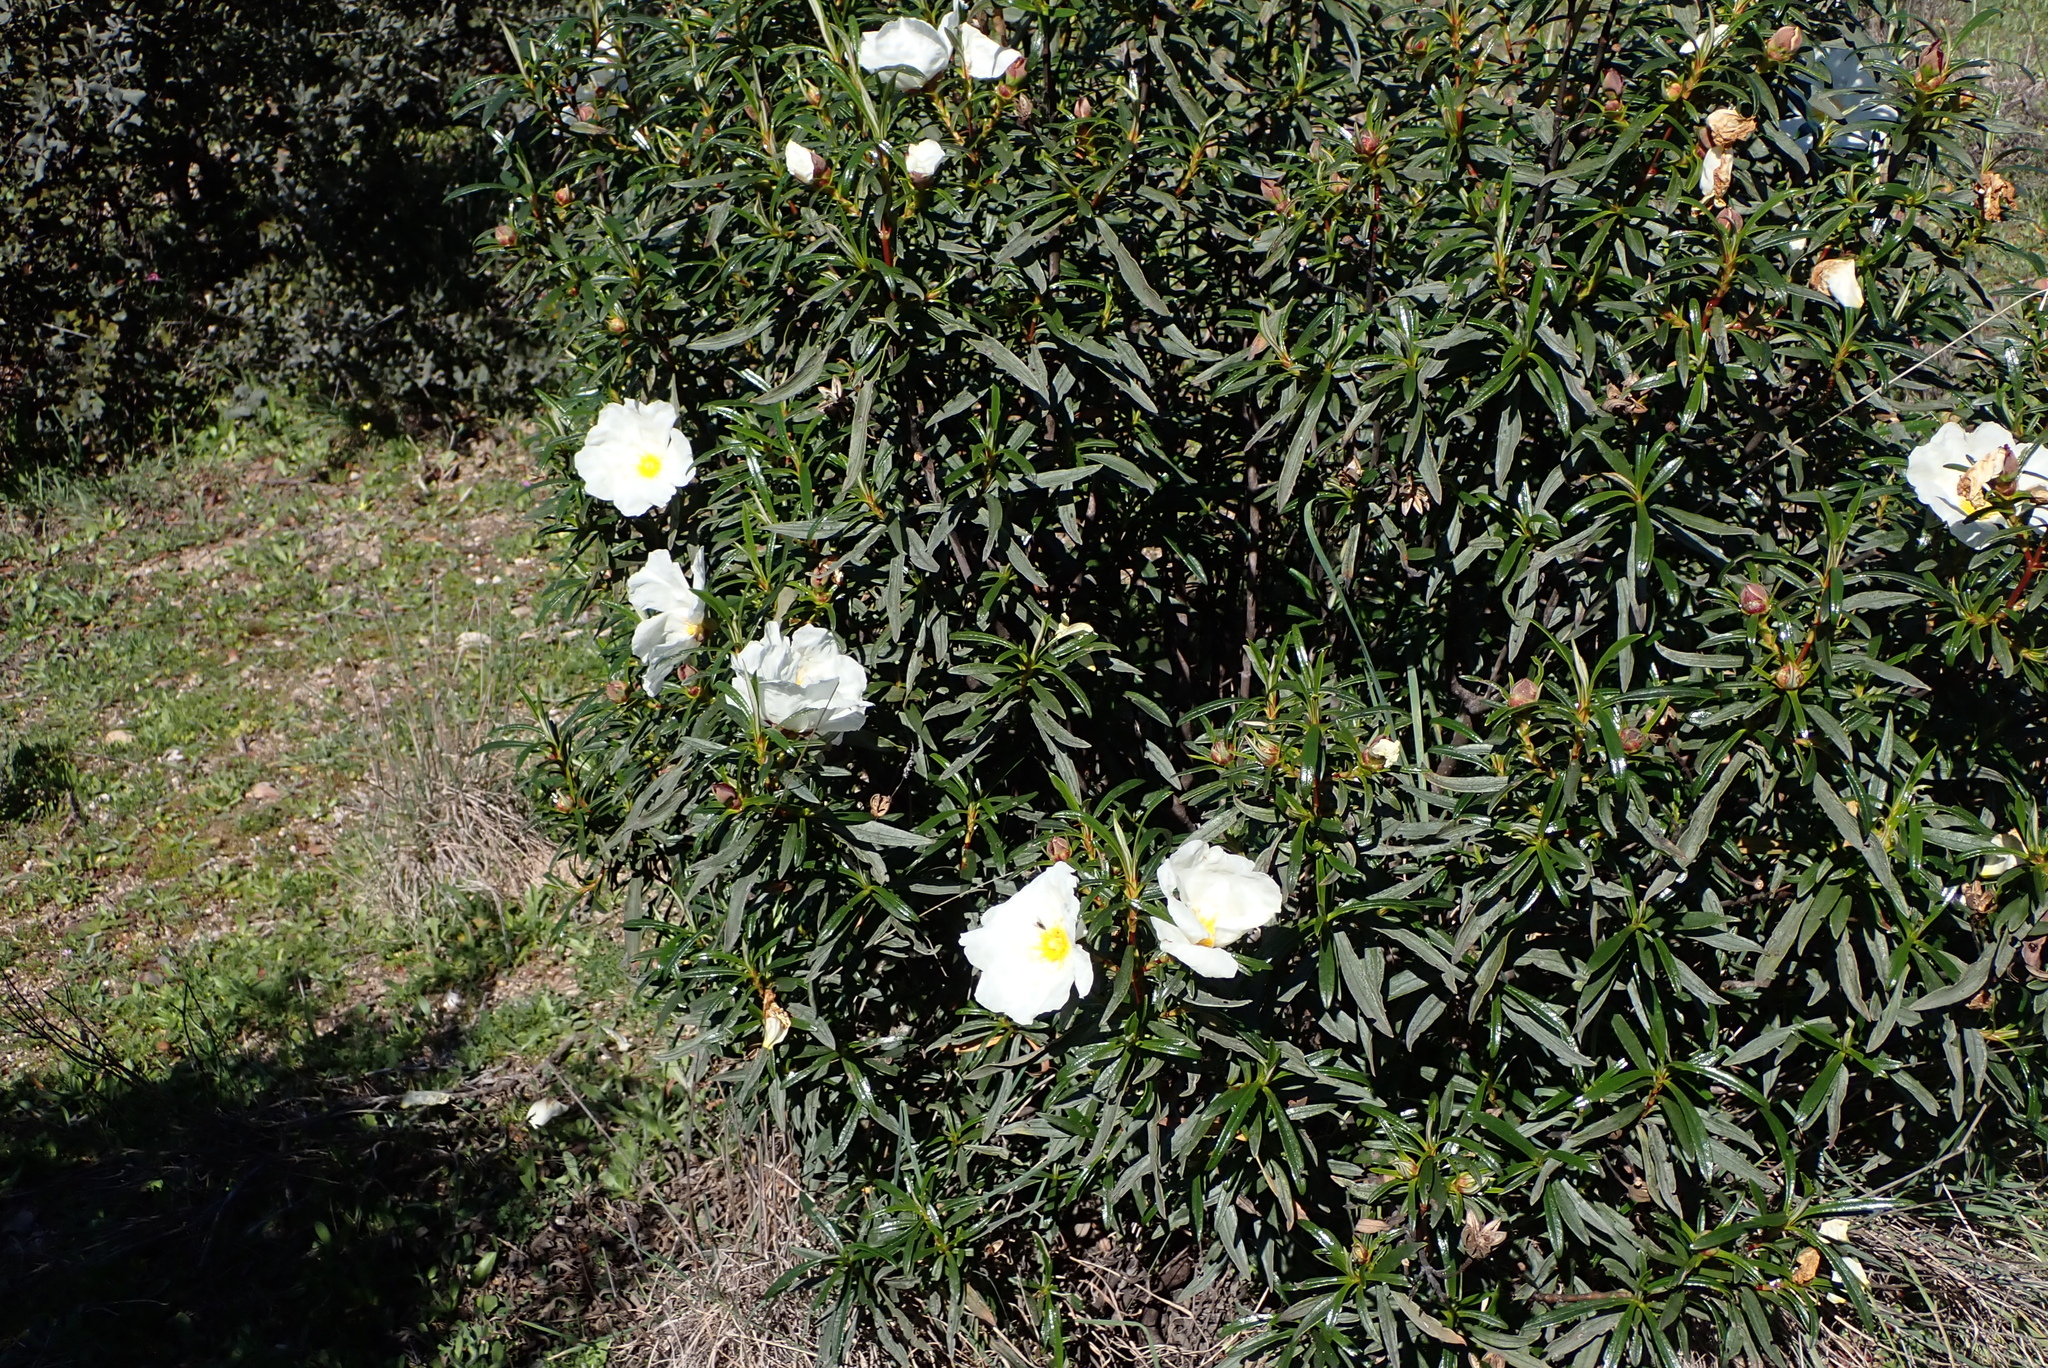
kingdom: Plantae
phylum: Tracheophyta
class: Magnoliopsida
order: Malvales
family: Cistaceae
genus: Cistus
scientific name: Cistus ladanifer
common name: Common gum cistus
